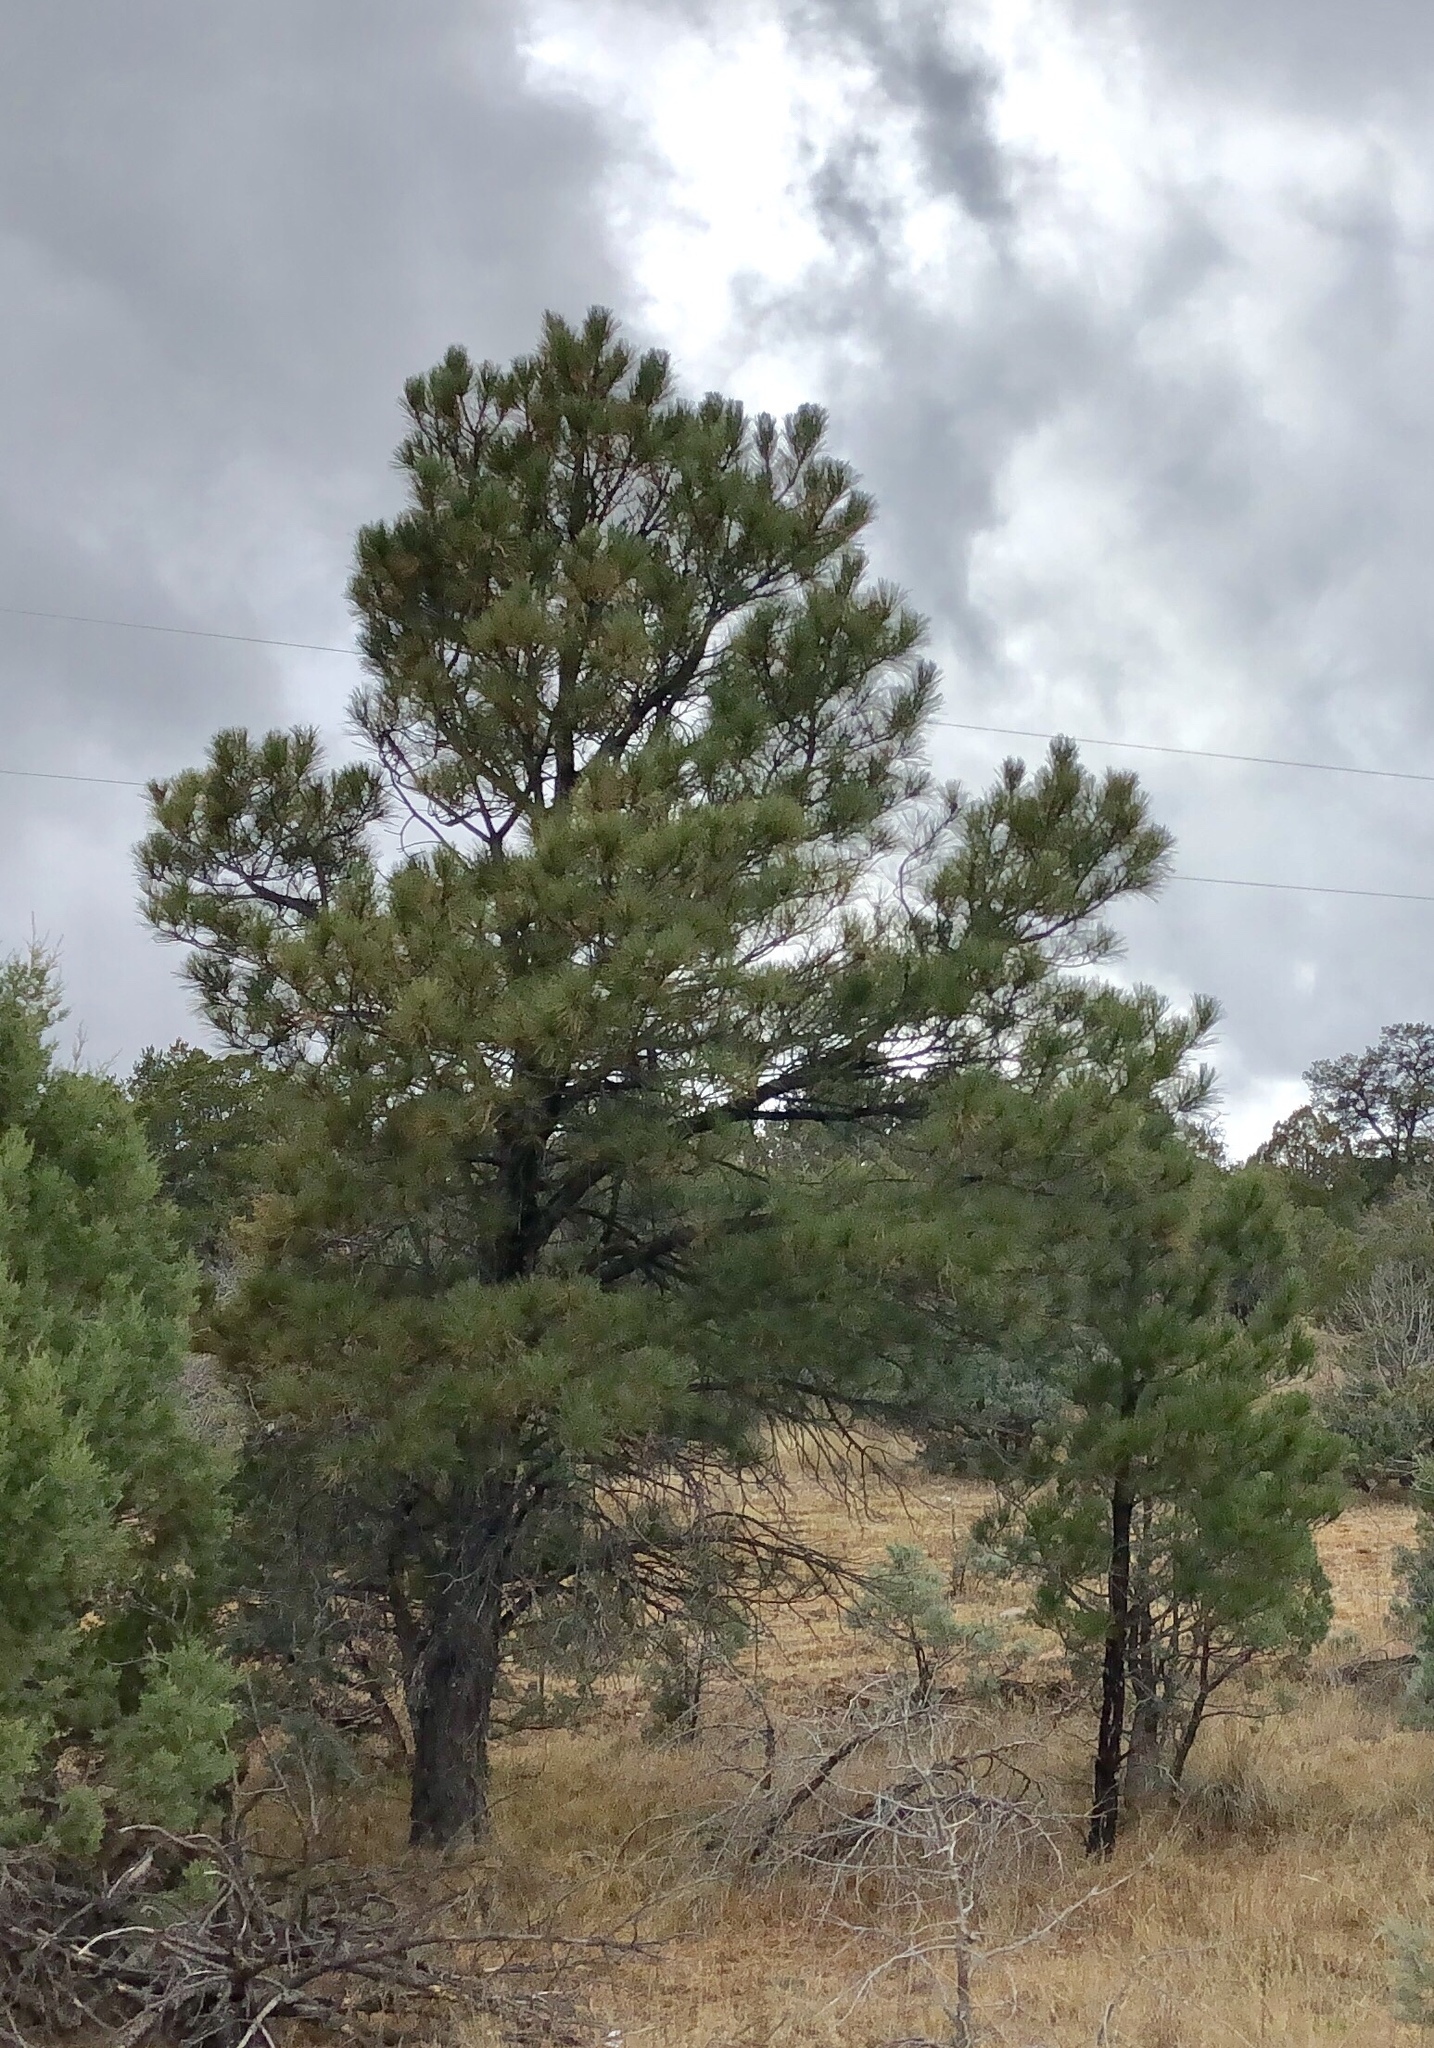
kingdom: Plantae
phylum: Tracheophyta
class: Pinopsida
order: Pinales
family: Pinaceae
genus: Pinus
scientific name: Pinus ponderosa
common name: Western yellow-pine
